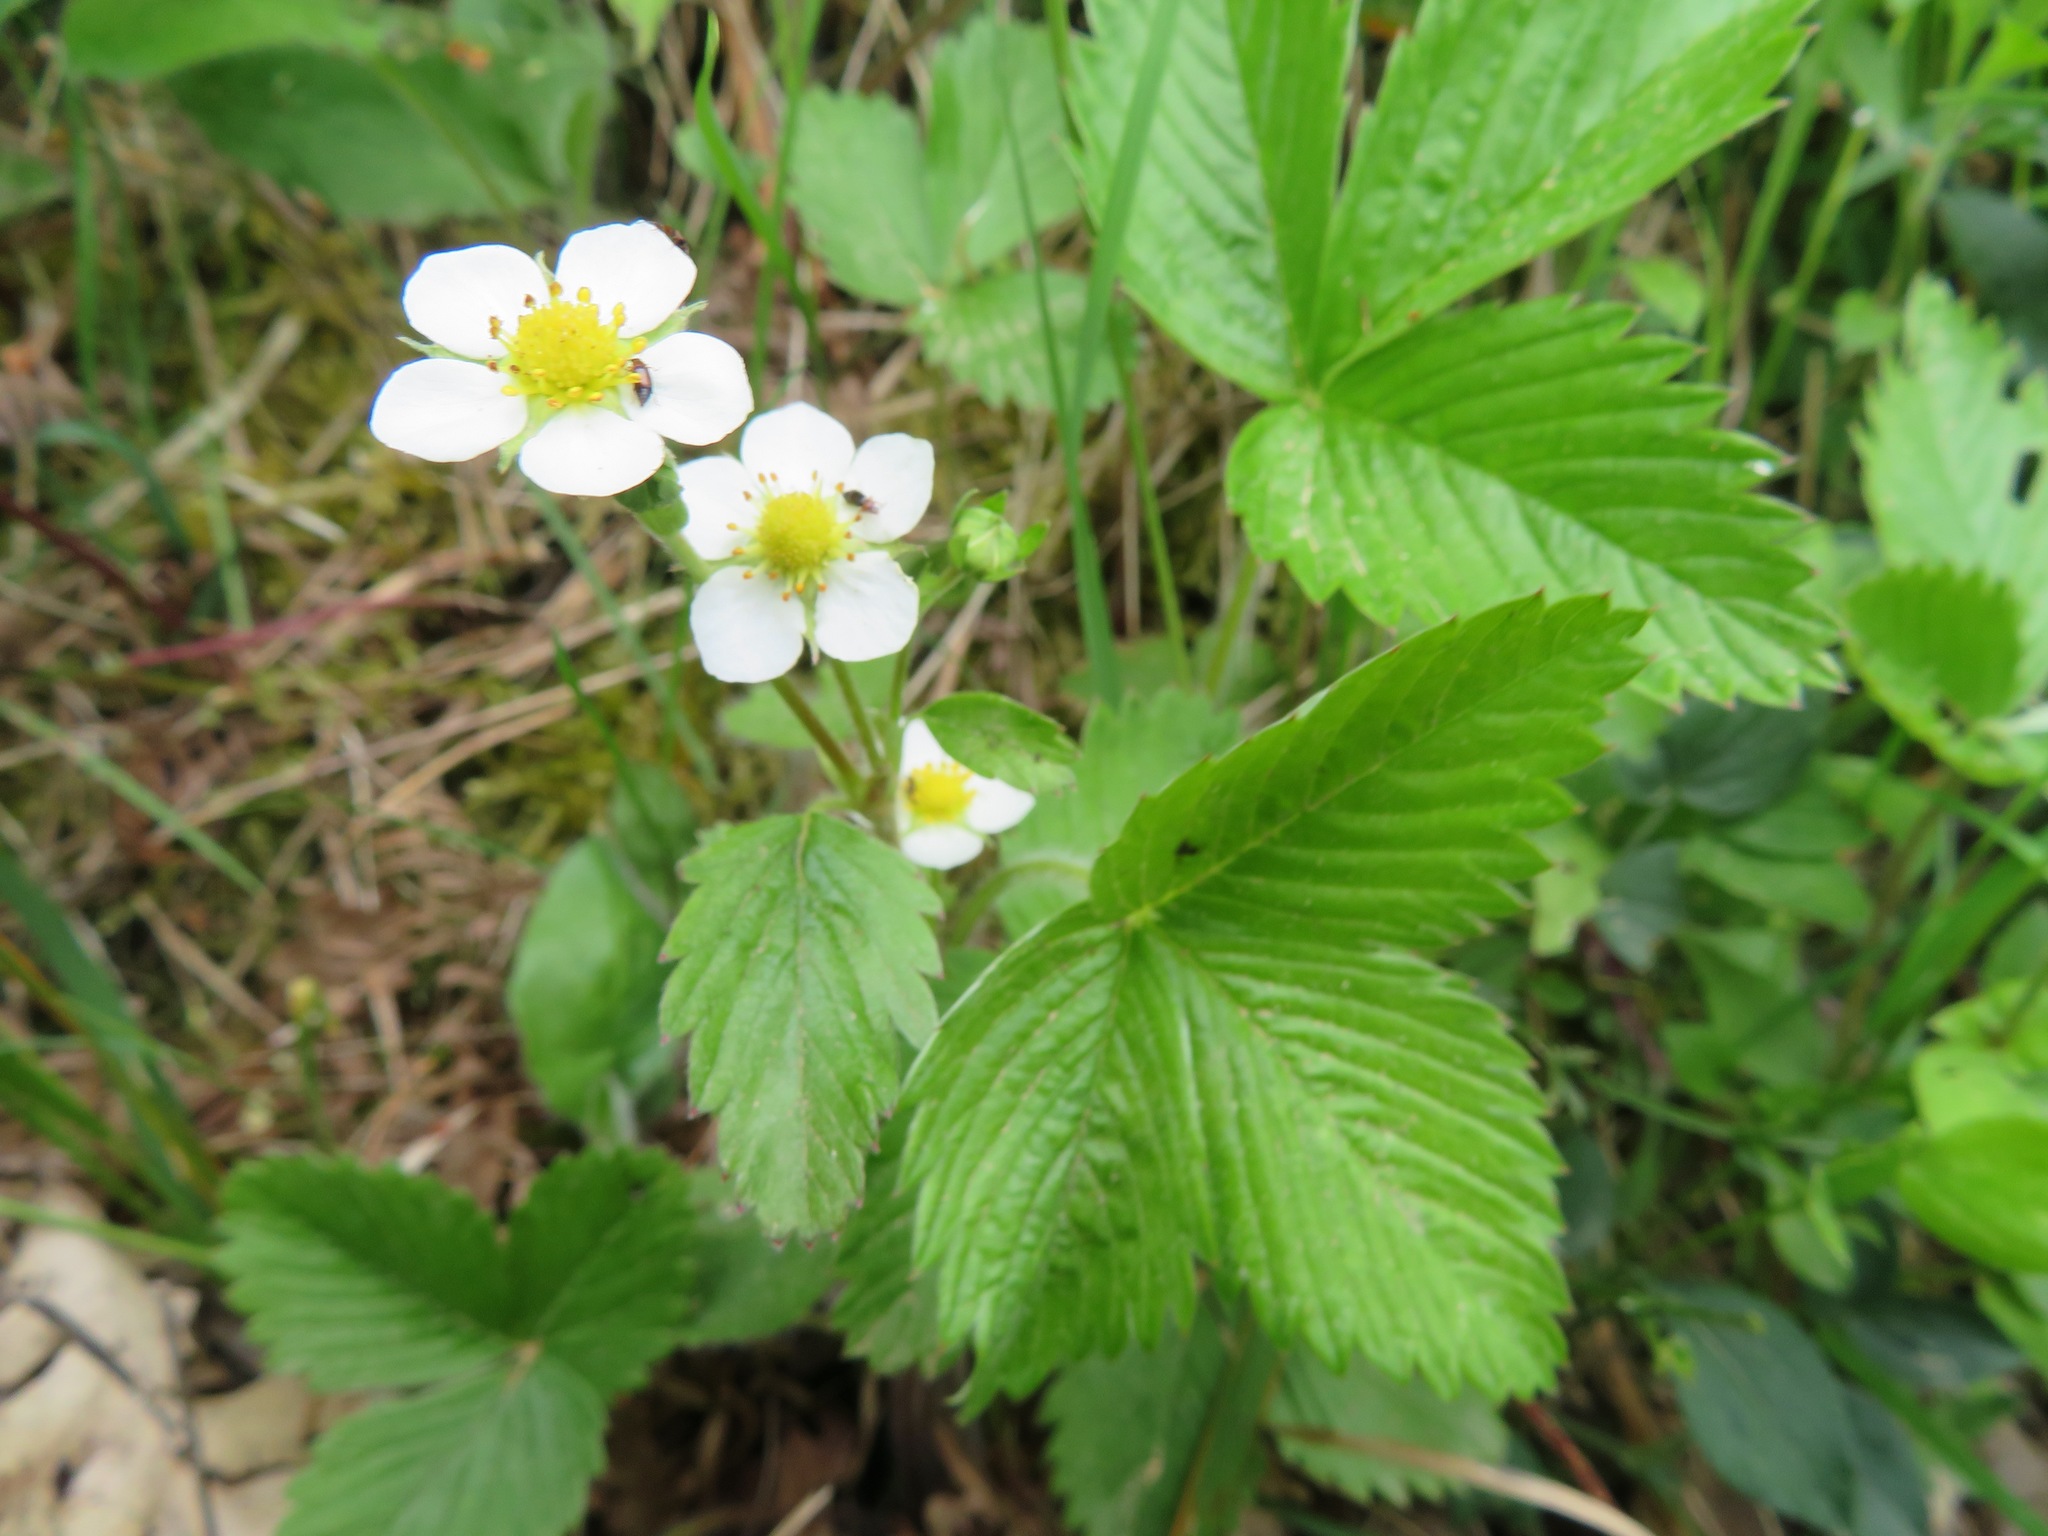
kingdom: Plantae
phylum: Tracheophyta
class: Magnoliopsida
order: Rosales
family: Rosaceae
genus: Fragaria
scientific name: Fragaria vesca
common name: Wild strawberry
